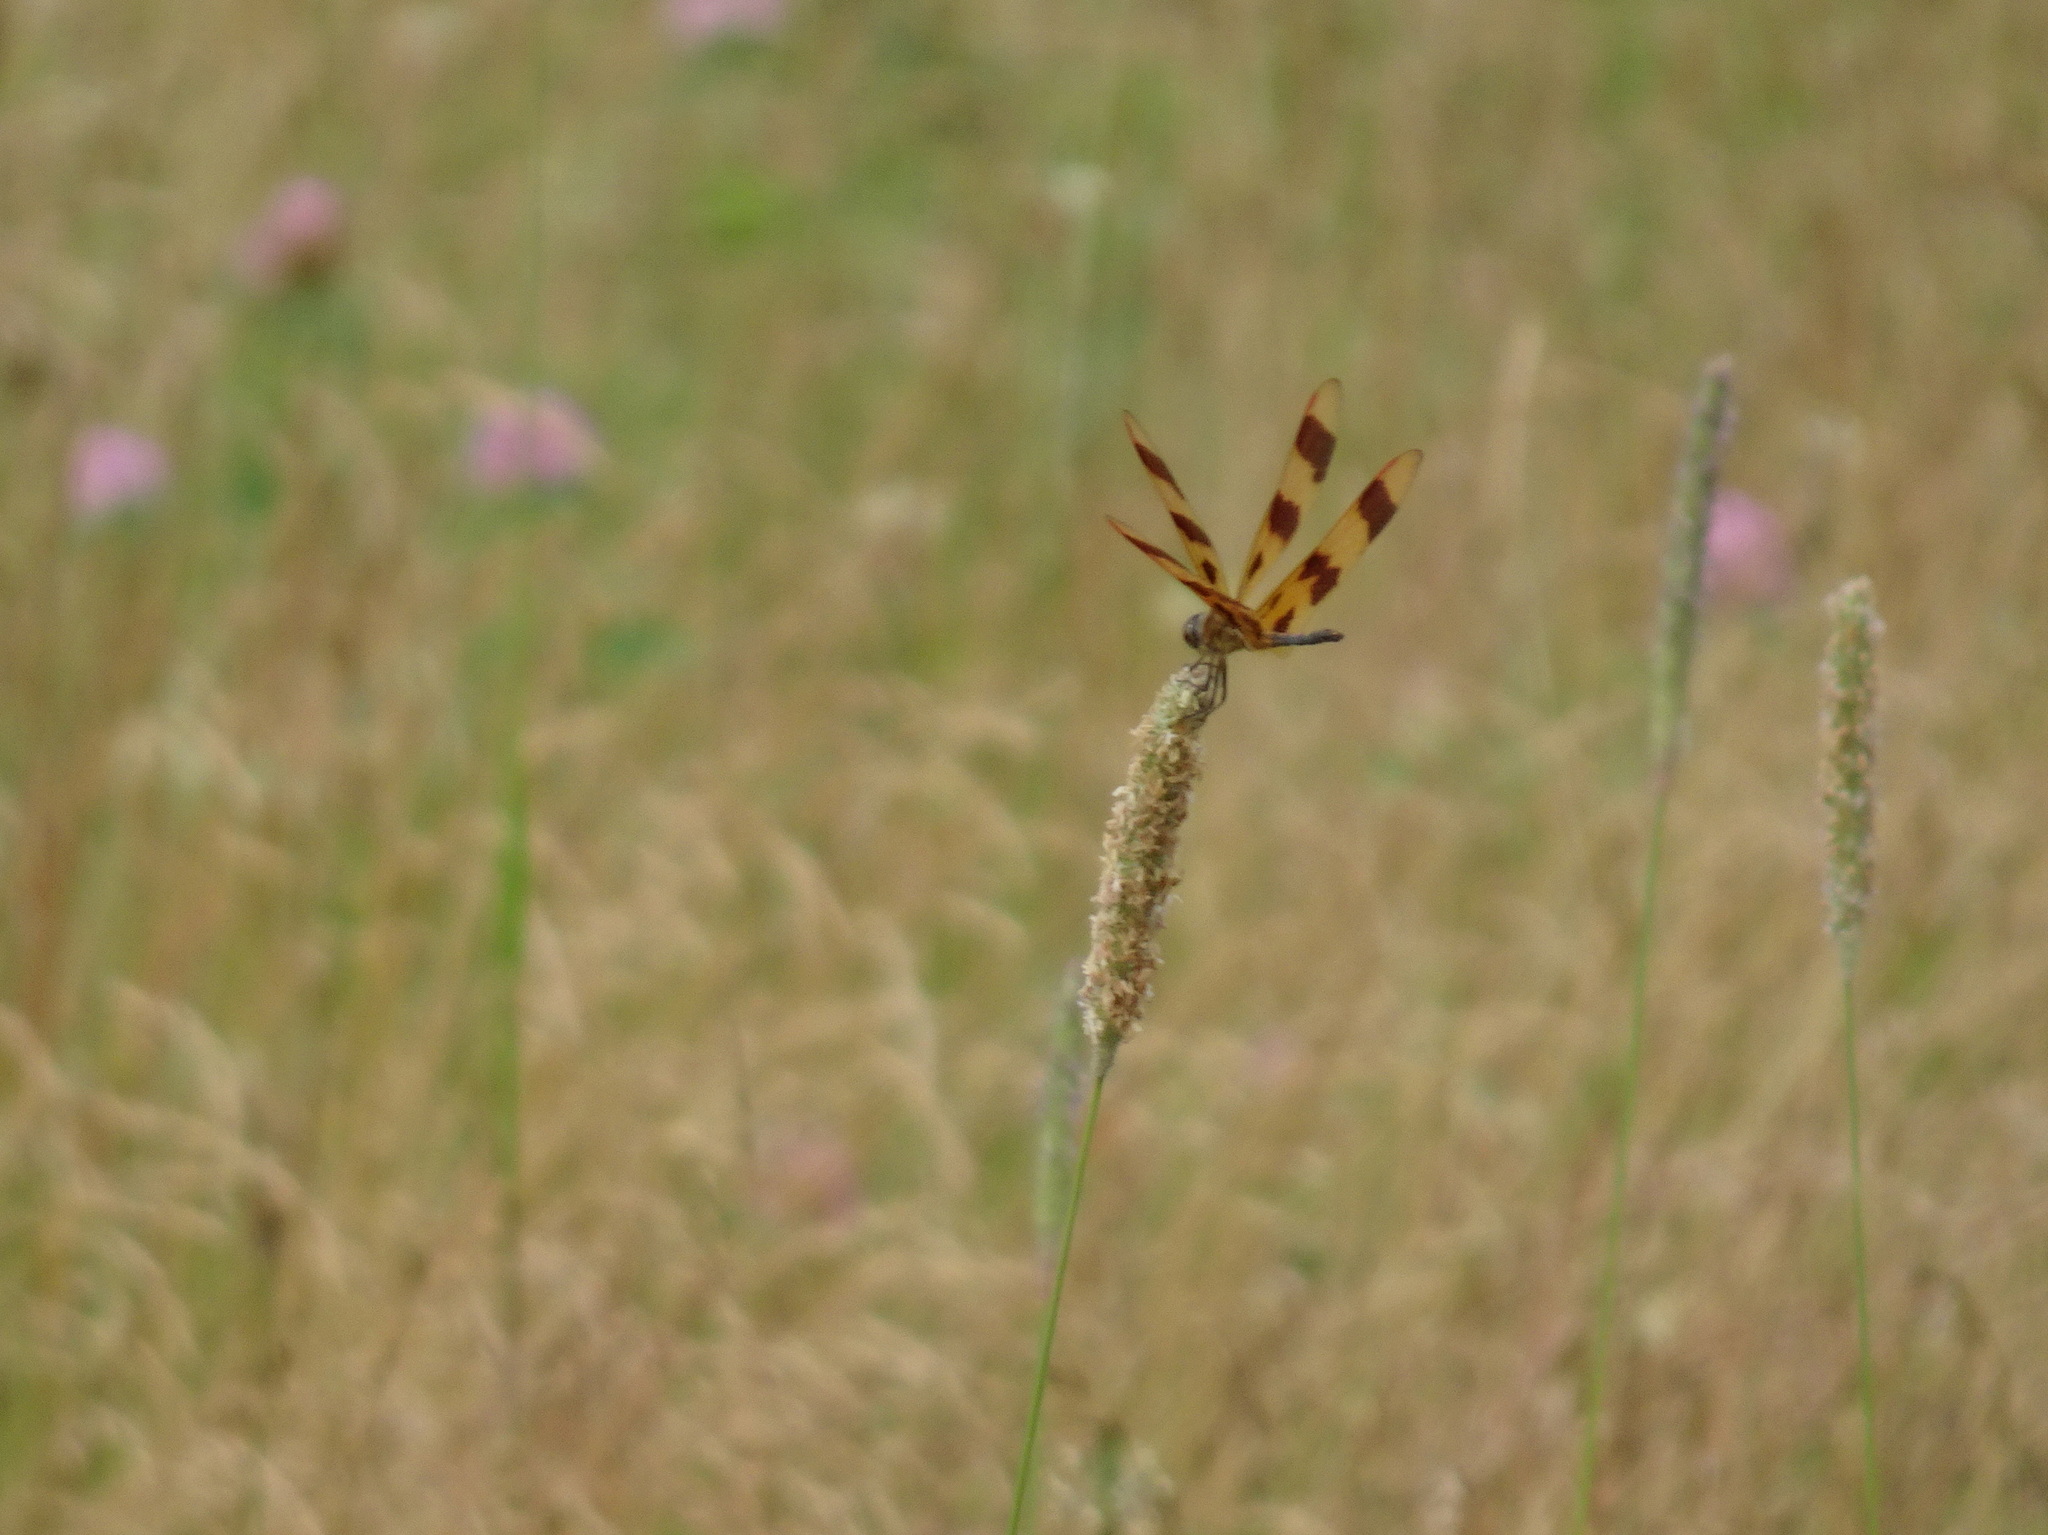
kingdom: Animalia
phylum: Arthropoda
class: Insecta
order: Odonata
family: Libellulidae
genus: Celithemis
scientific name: Celithemis eponina
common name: Halloween pennant
